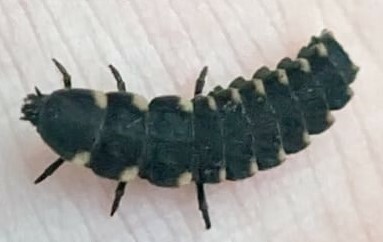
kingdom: Animalia
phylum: Arthropoda
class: Insecta
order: Coleoptera
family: Lampyridae
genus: Lampyris
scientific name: Lampyris noctiluca
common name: Glow-worm
